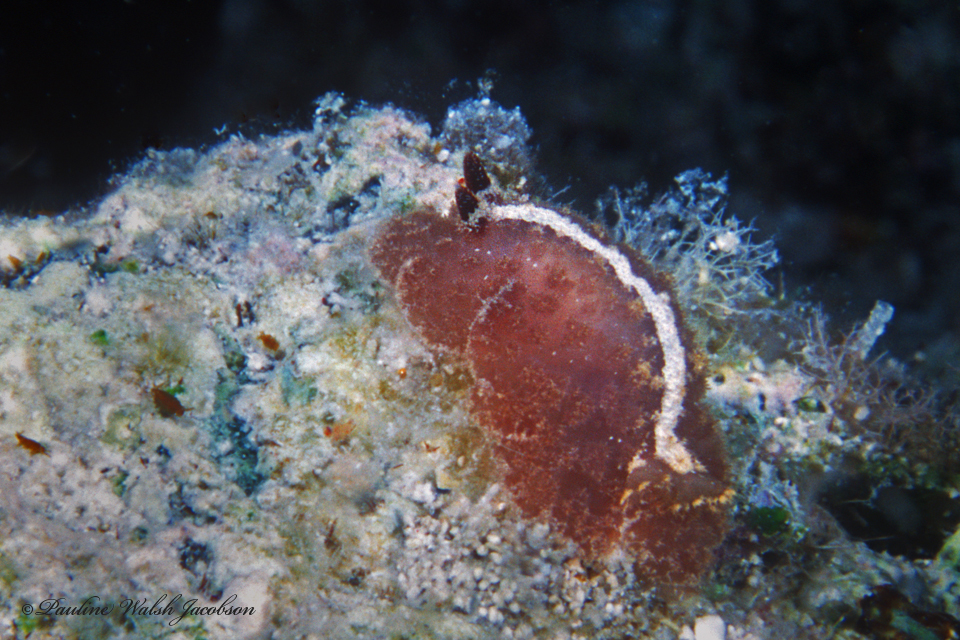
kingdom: Animalia
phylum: Mollusca
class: Gastropoda
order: Nudibranchia
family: Discodorididae
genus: Atagema
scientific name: Atagema intecta
